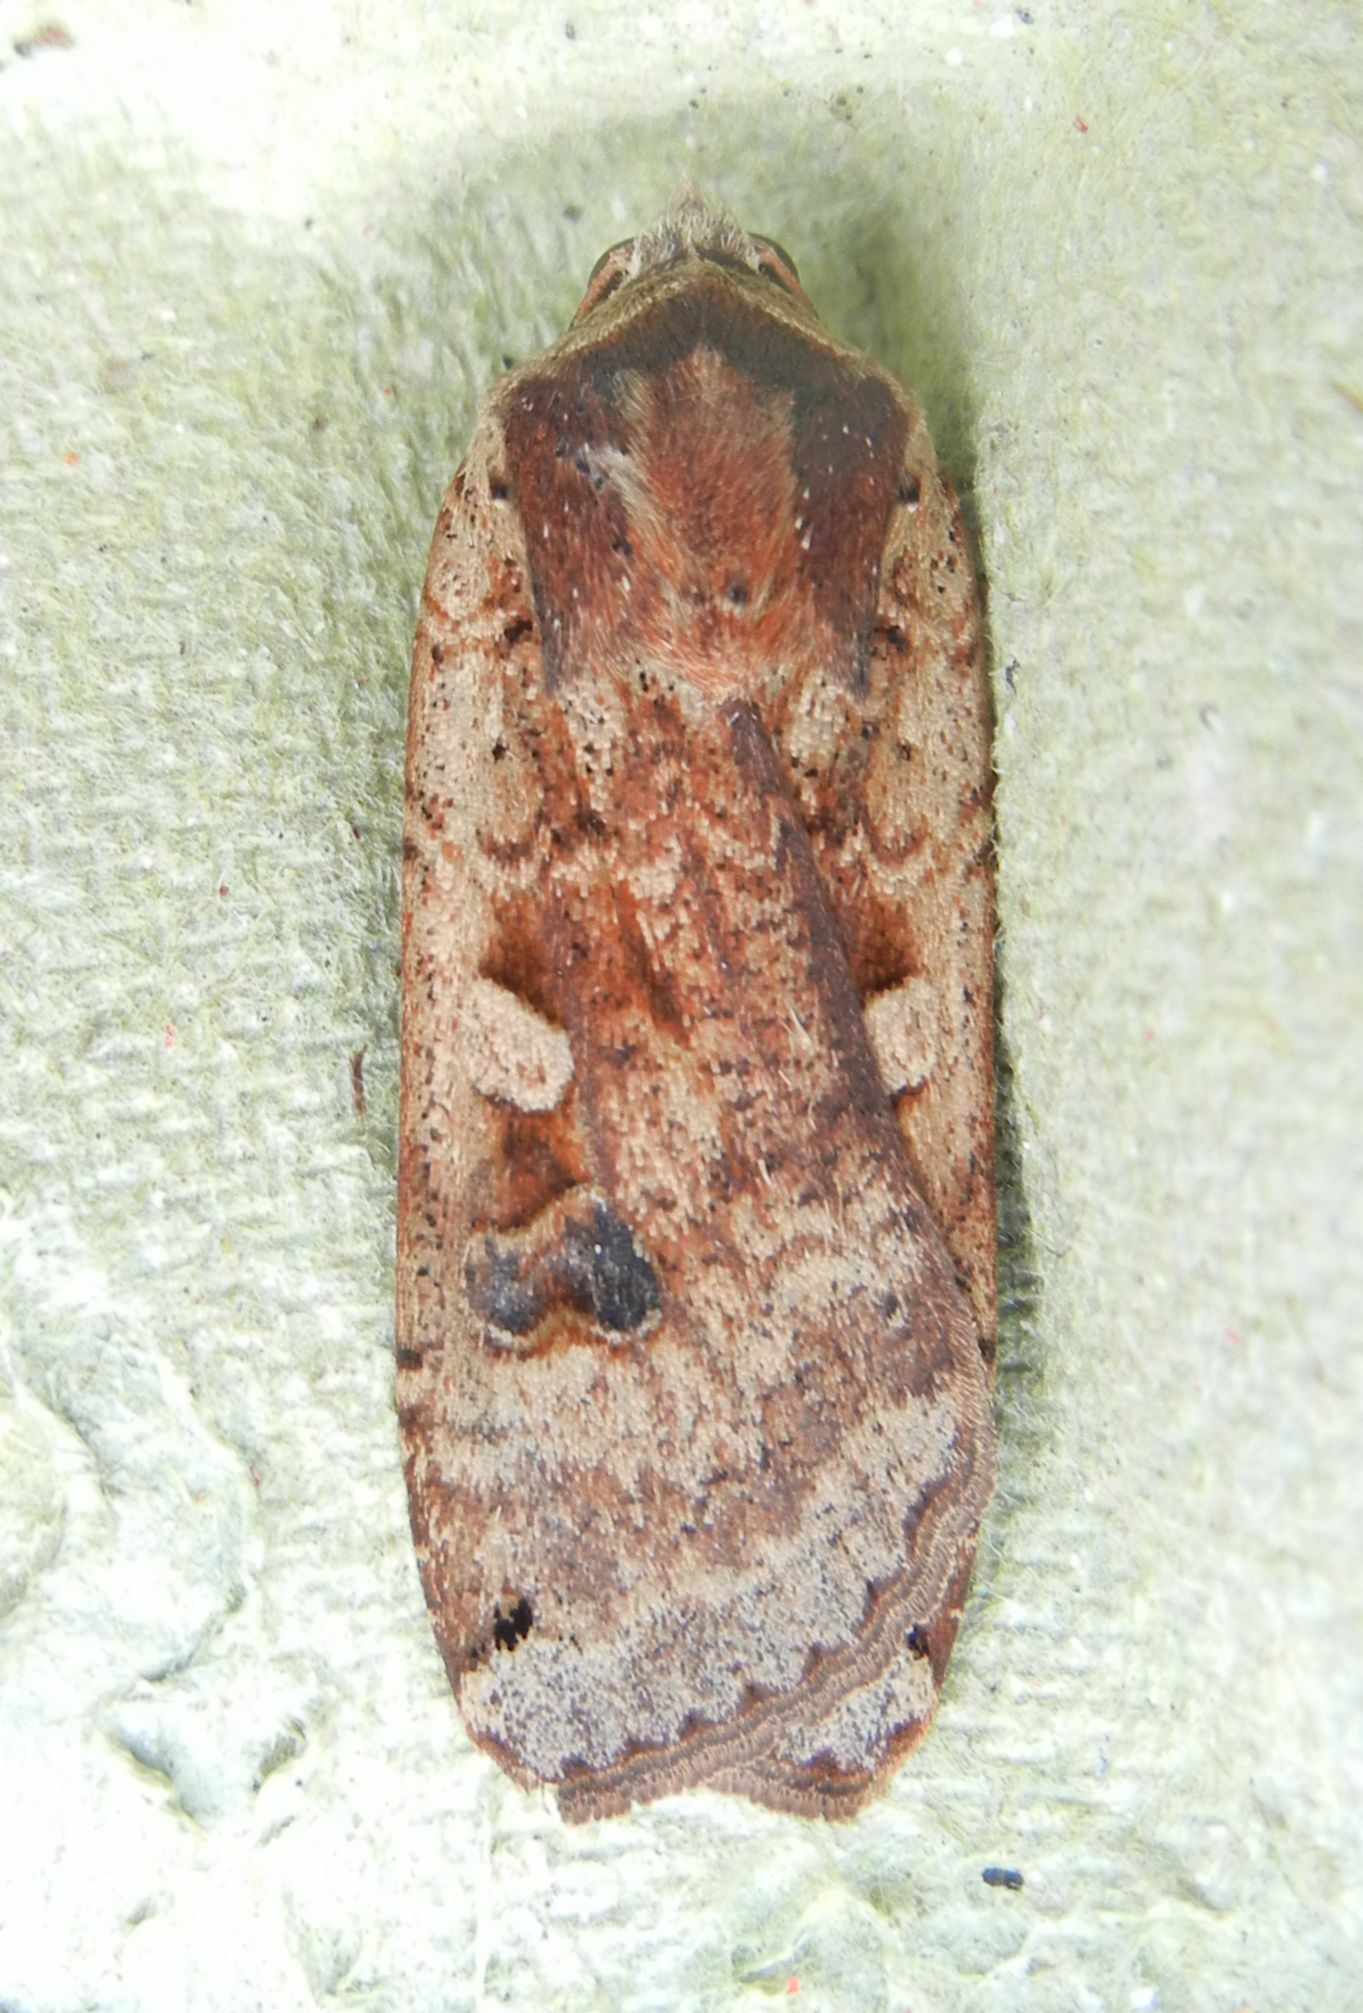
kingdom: Animalia
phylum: Arthropoda
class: Insecta
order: Lepidoptera
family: Noctuidae
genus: Noctua
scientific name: Noctua pronuba
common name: Large yellow underwing
